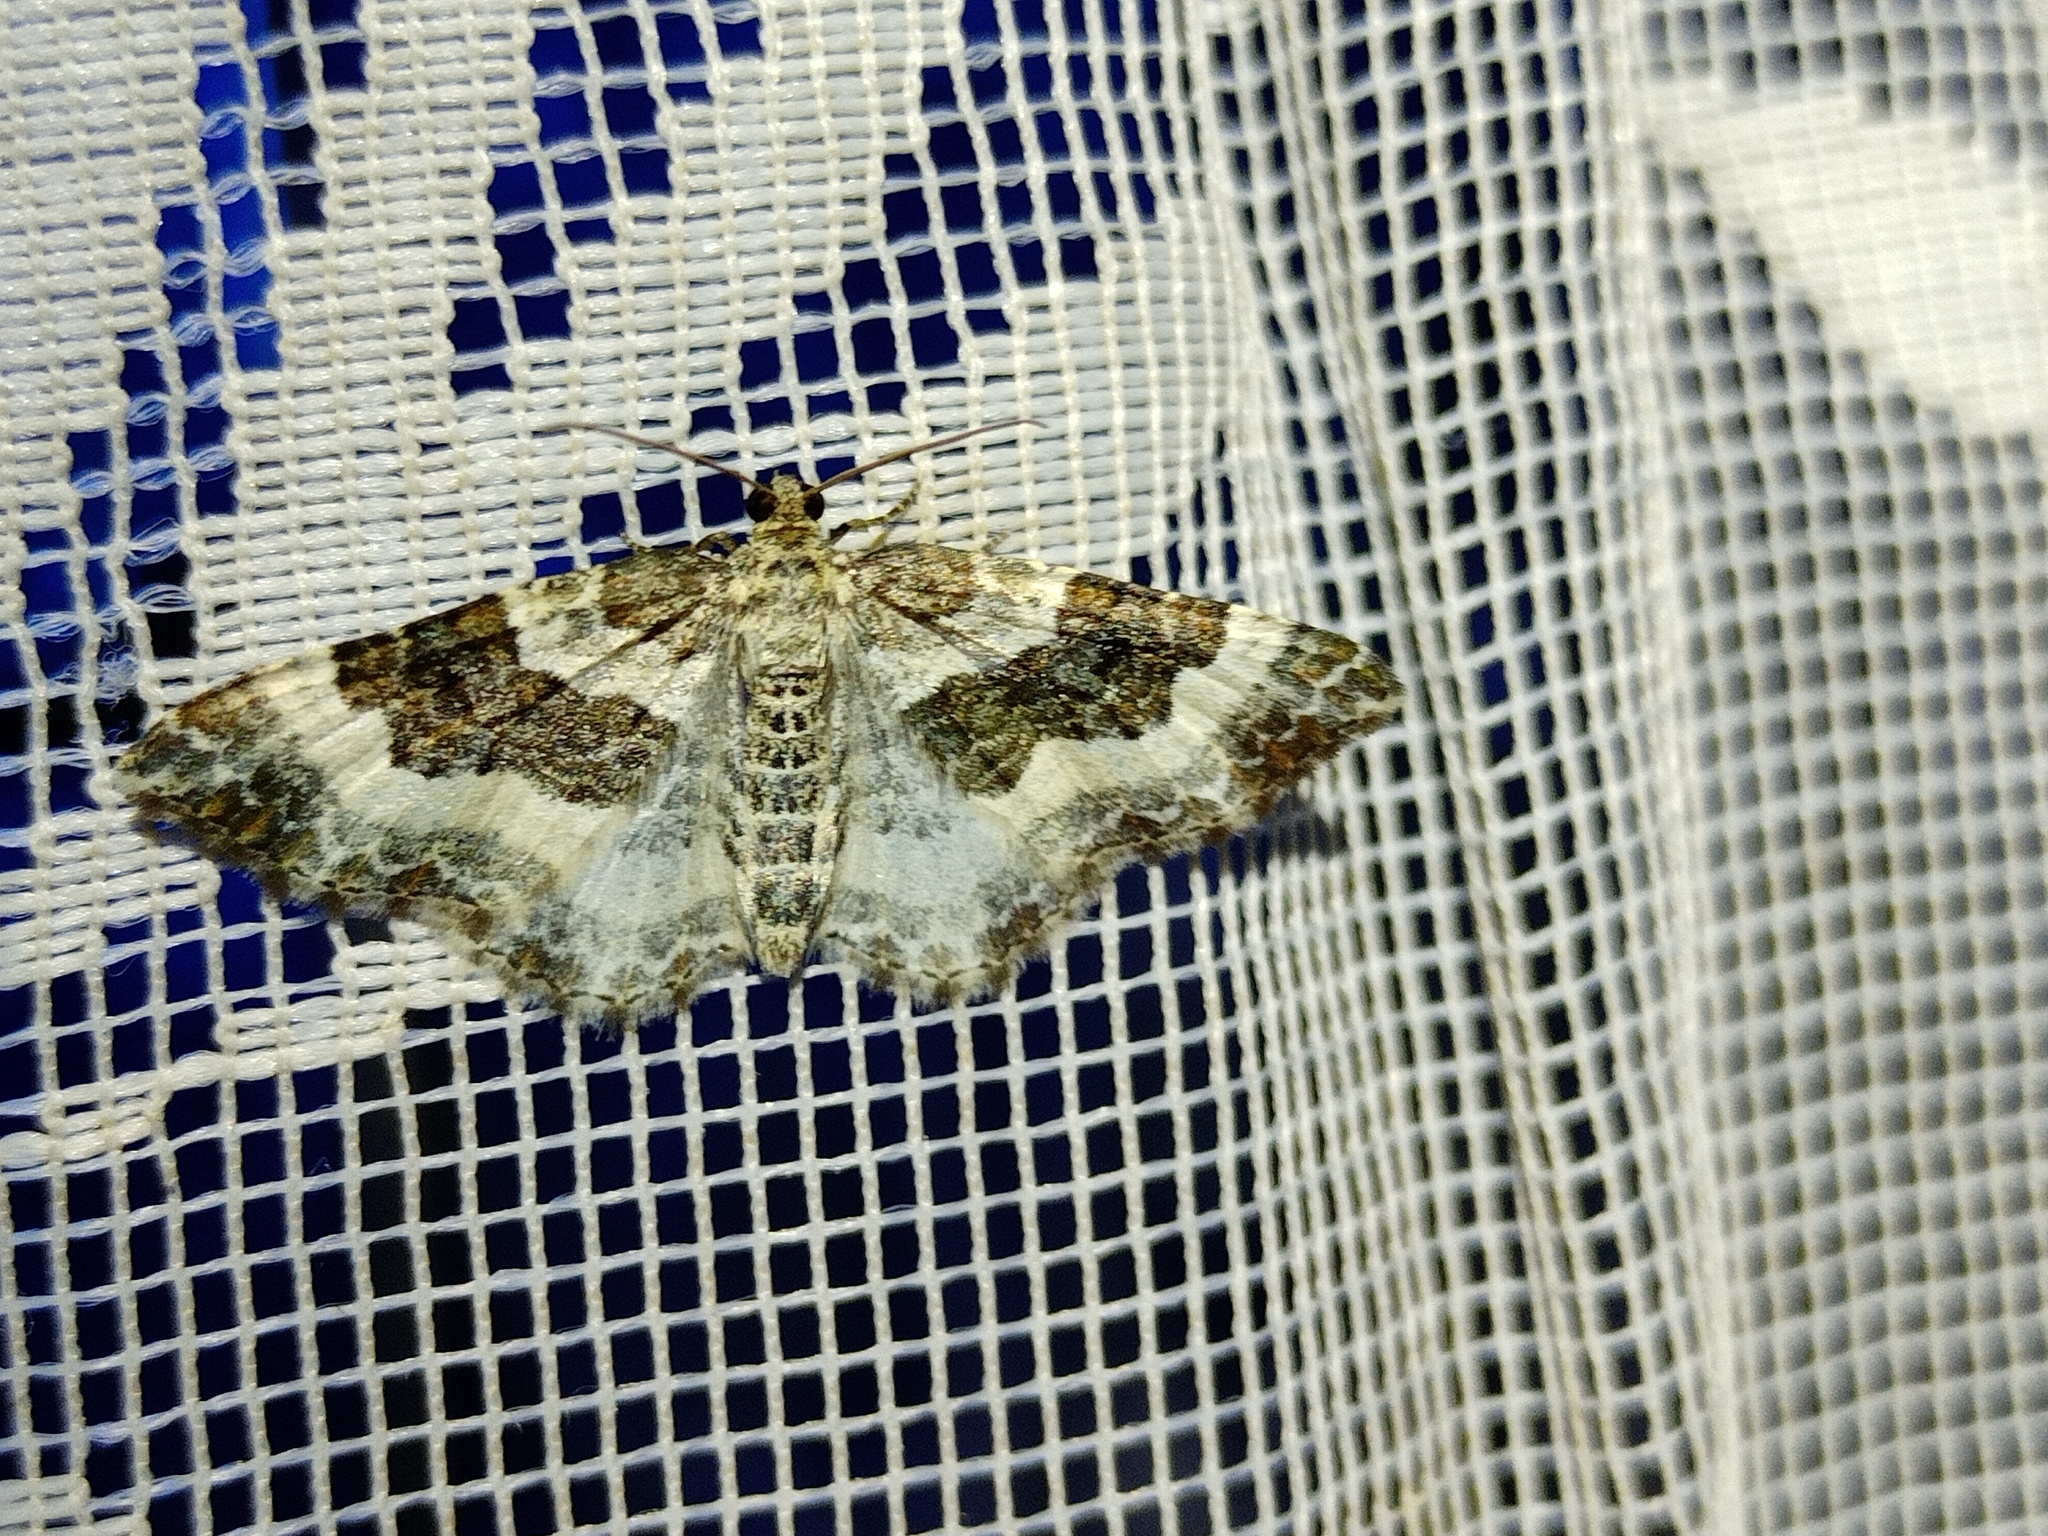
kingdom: Animalia
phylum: Arthropoda
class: Insecta
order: Lepidoptera
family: Geometridae
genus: Epirrhoe
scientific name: Epirrhoe rivata
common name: Wood carpet
